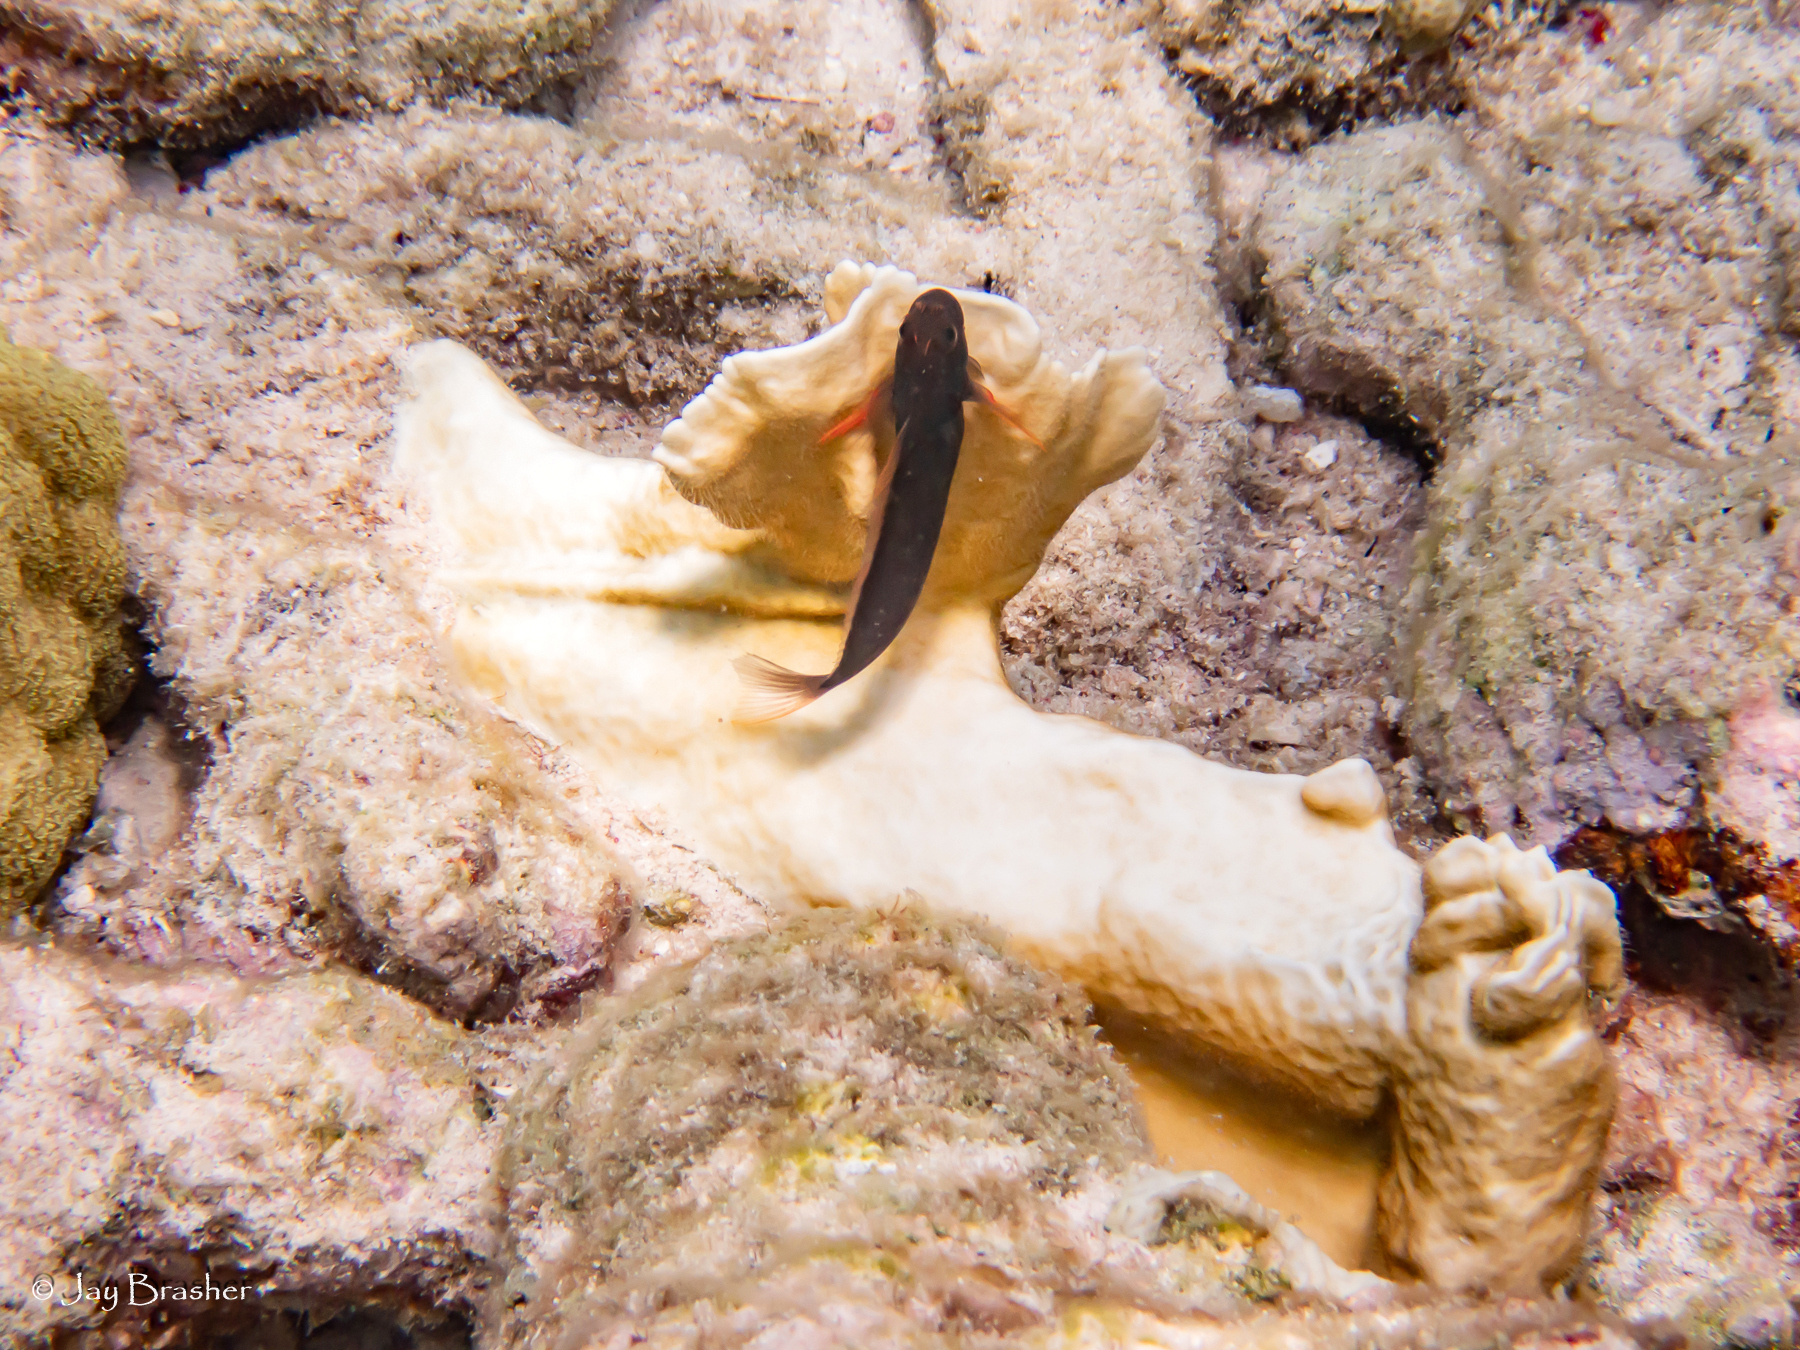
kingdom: Animalia
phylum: Chordata
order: Perciformes
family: Blenniidae
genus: Ophioblennius
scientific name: Ophioblennius macclurei
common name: Redlip blenny
